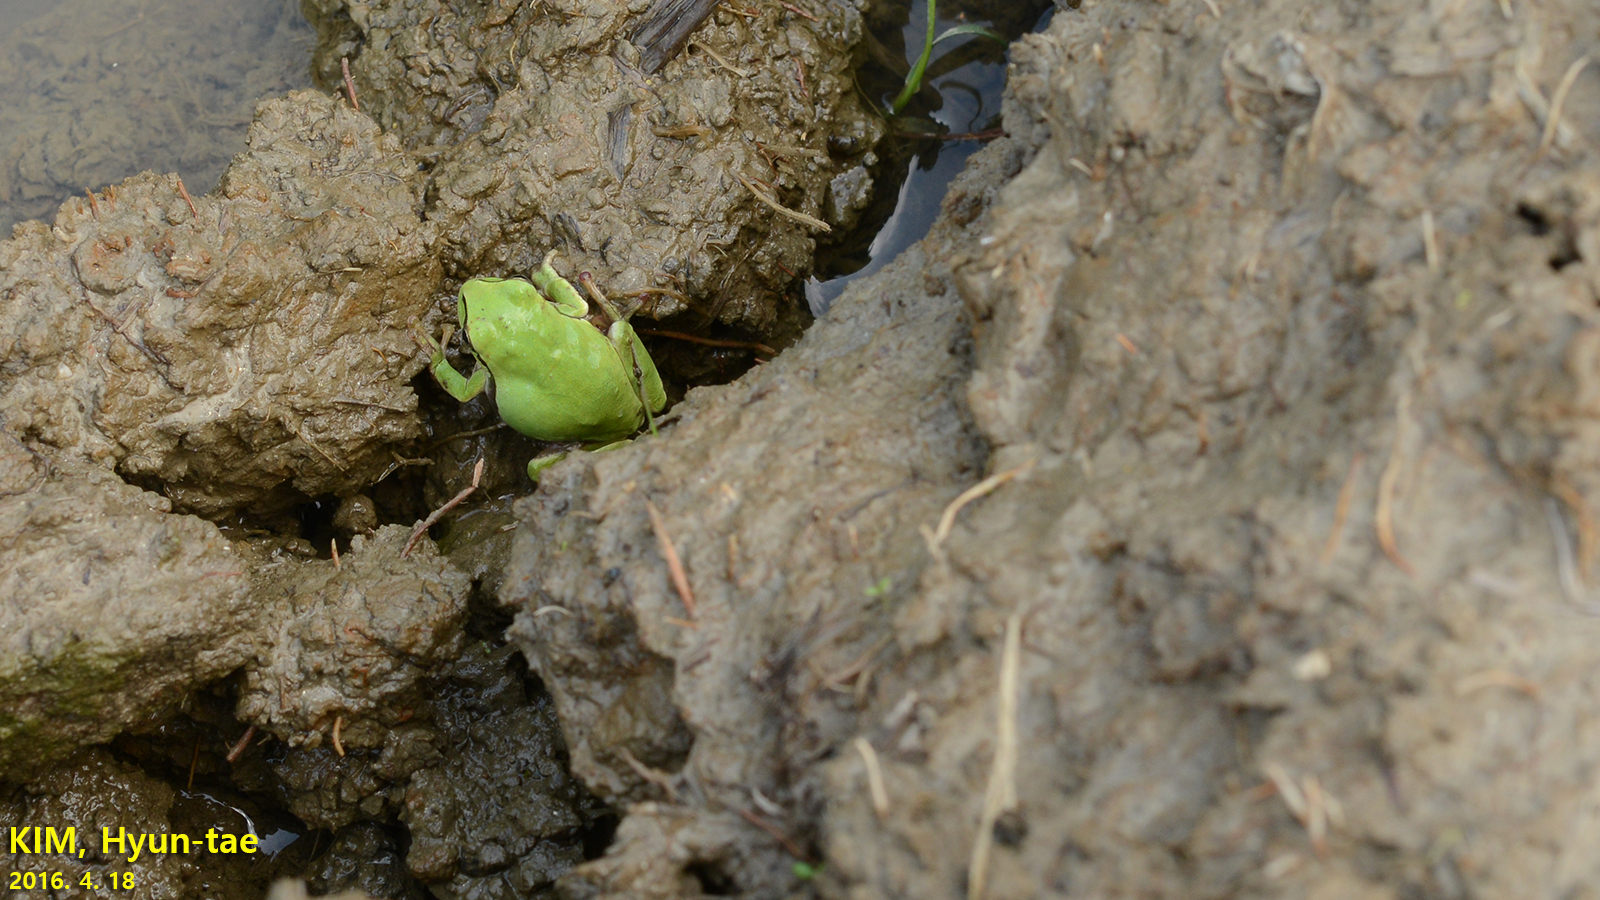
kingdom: Animalia
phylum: Chordata
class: Amphibia
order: Anura
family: Hylidae
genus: Hyla
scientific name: Hyla
